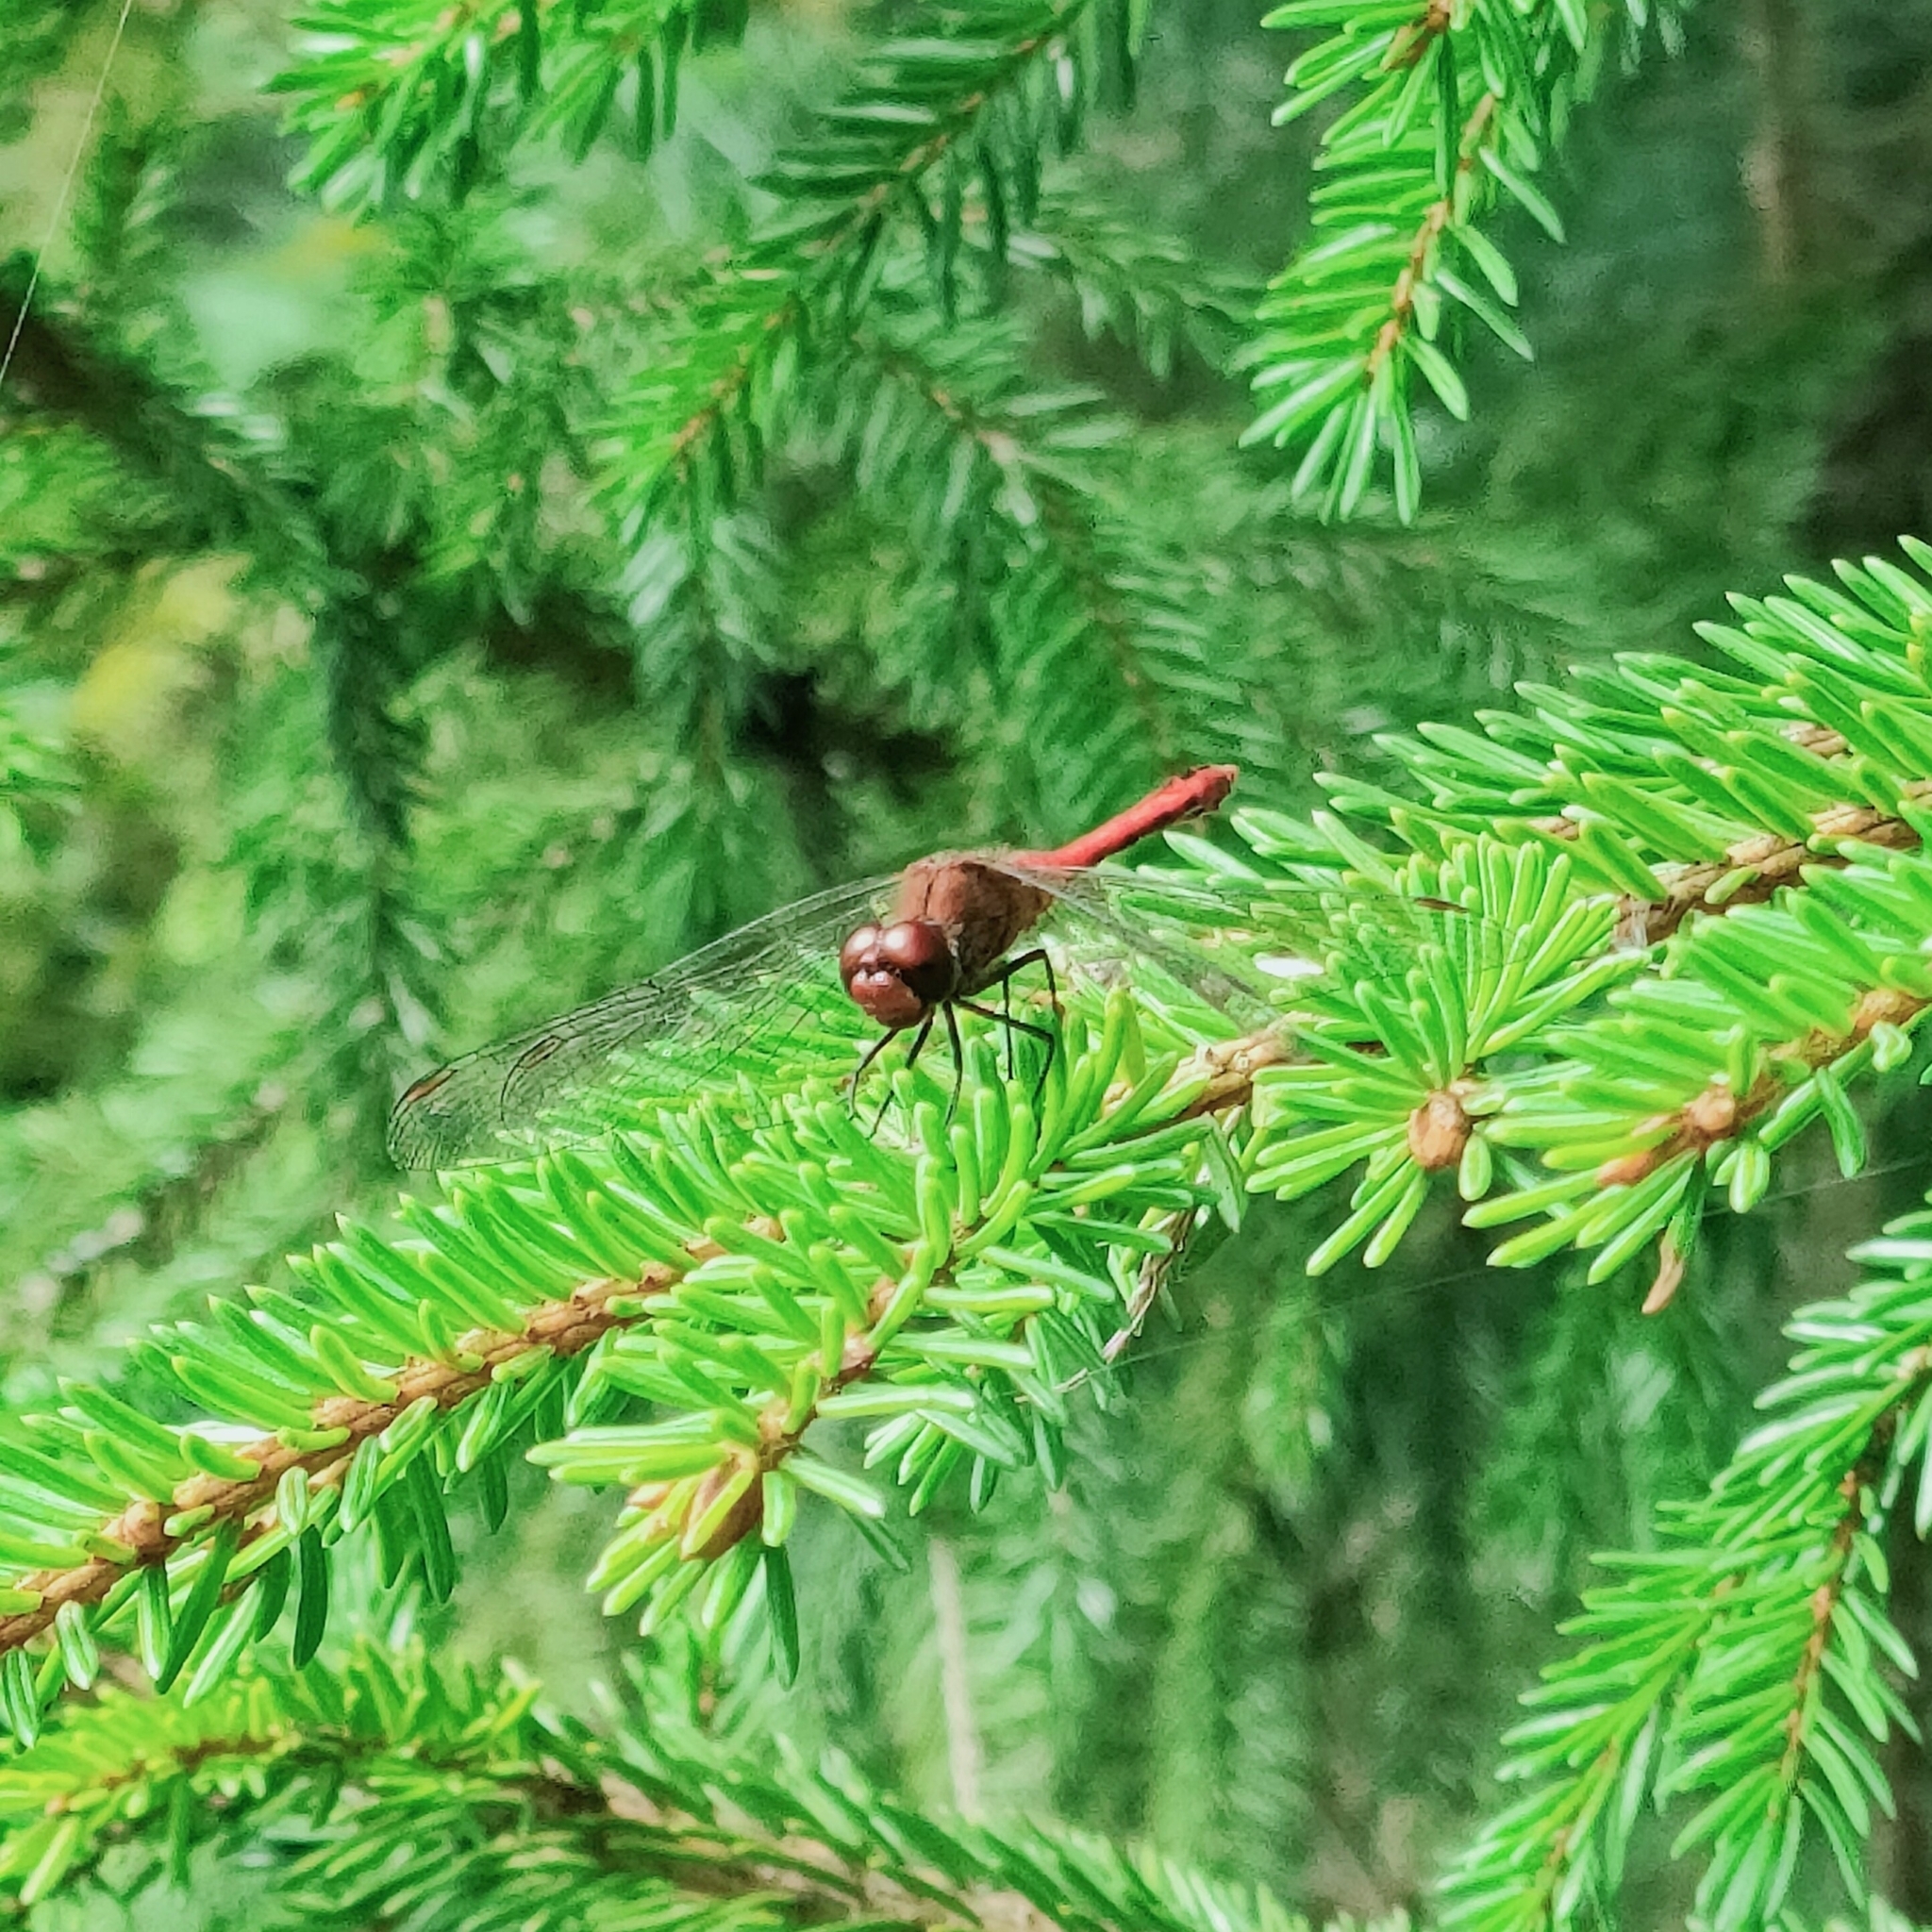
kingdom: Animalia
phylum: Arthropoda
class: Insecta
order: Odonata
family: Libellulidae
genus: Sympetrum
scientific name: Sympetrum sanguineum
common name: Ruddy darter
